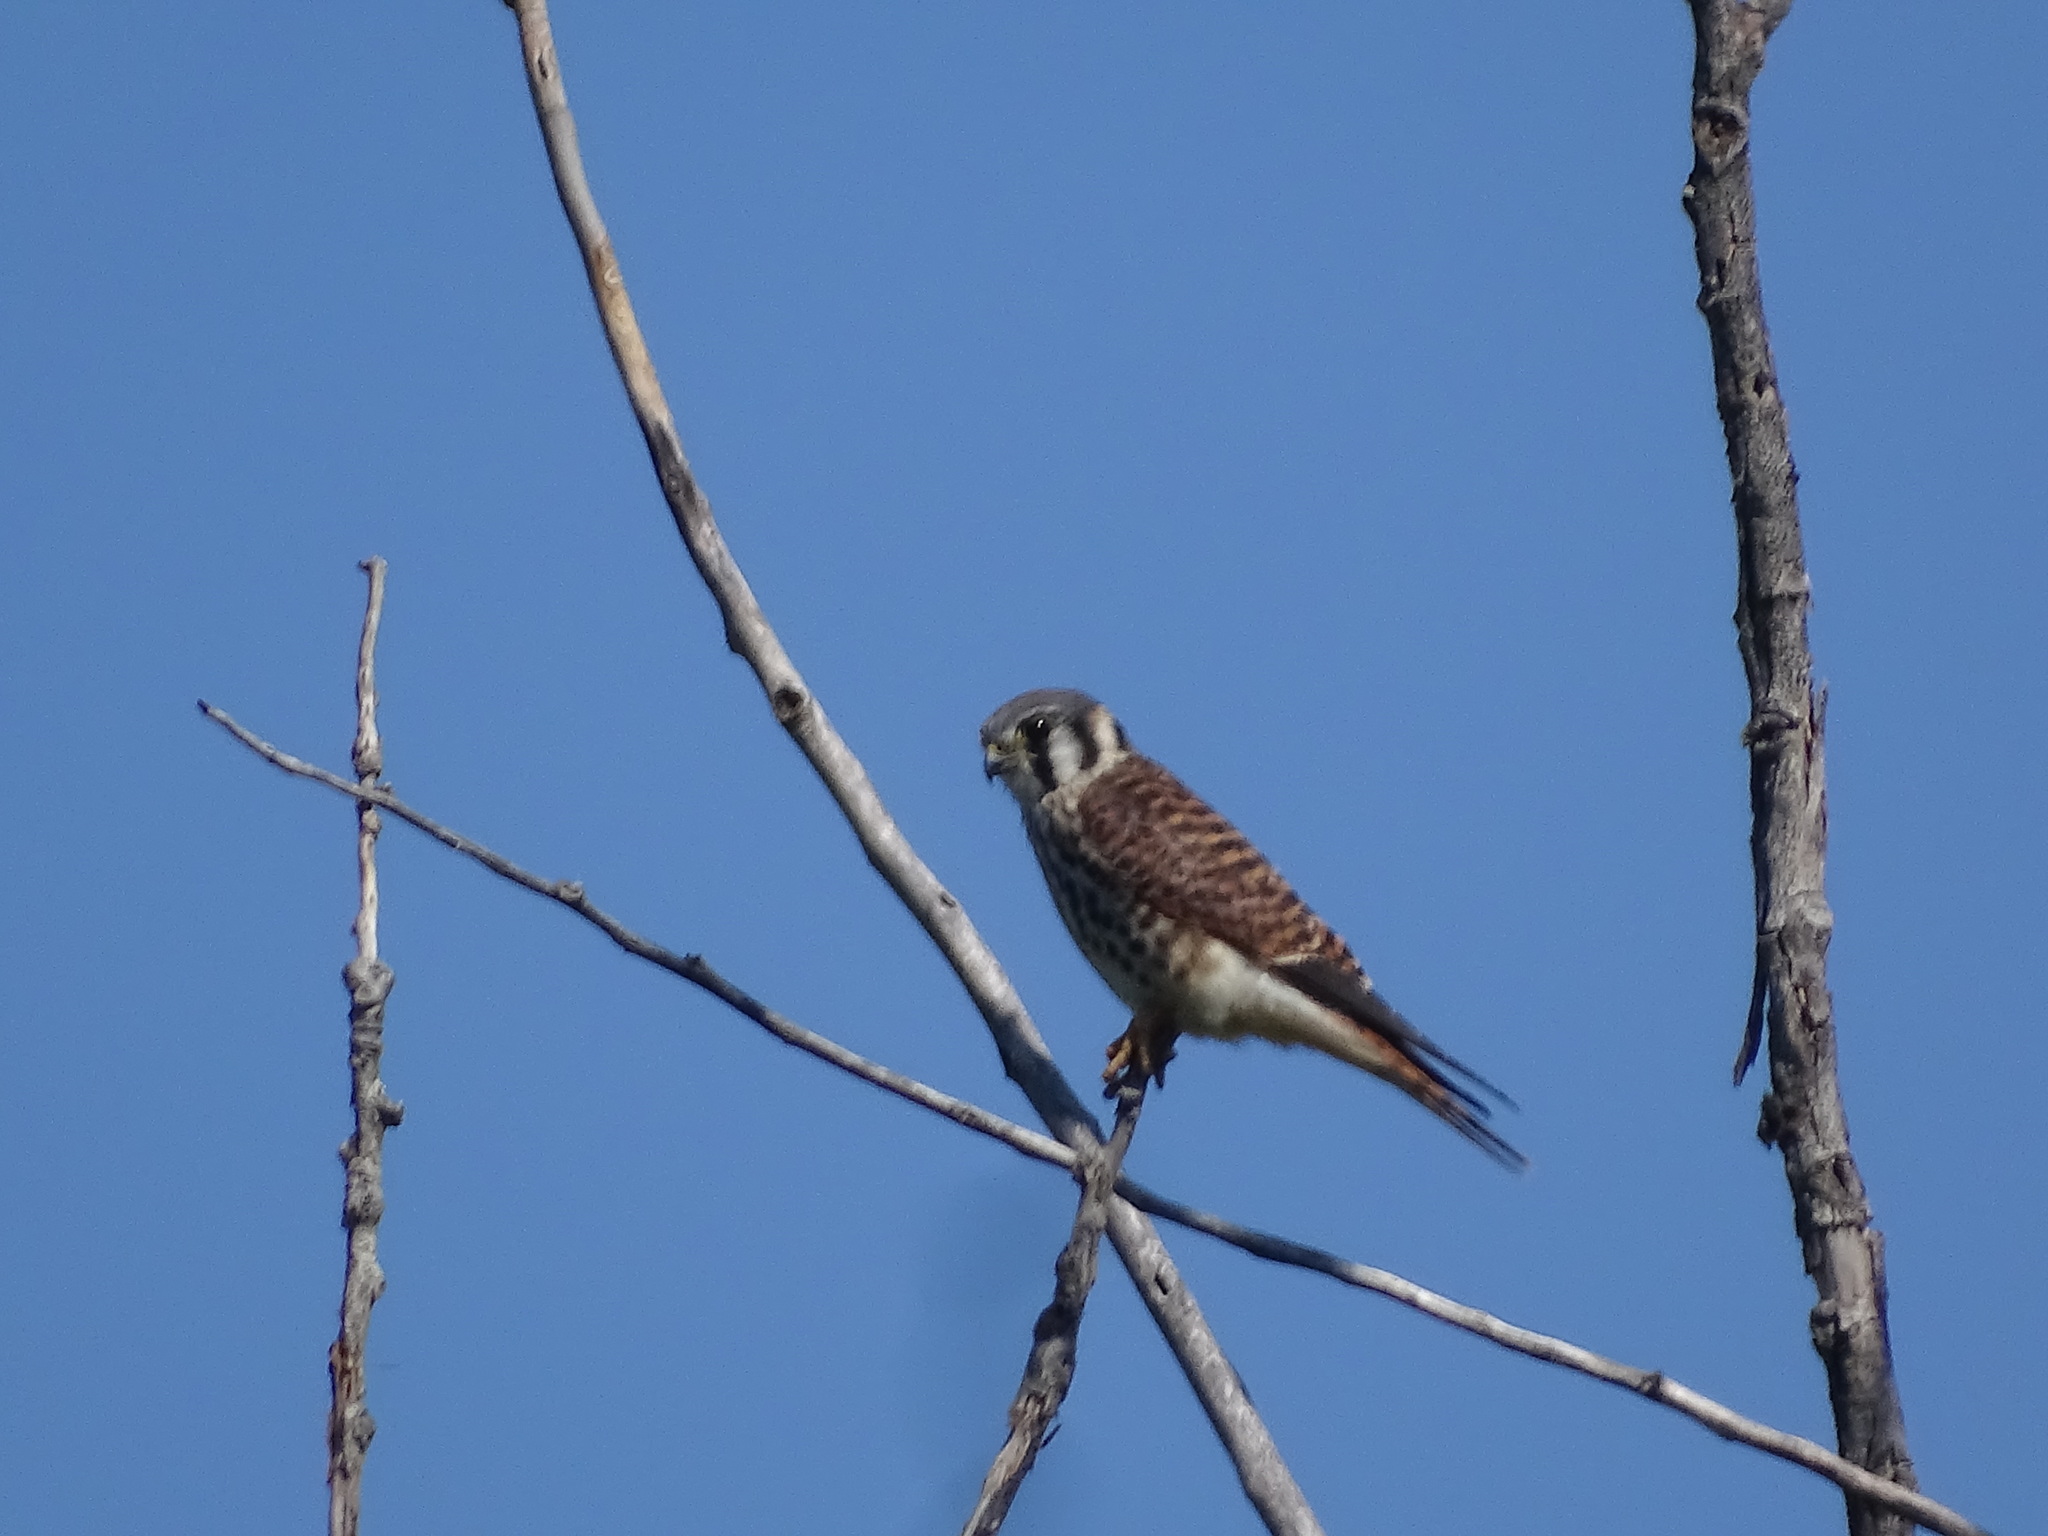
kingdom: Animalia
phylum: Chordata
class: Aves
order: Falconiformes
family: Falconidae
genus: Falco
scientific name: Falco sparverius
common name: American kestrel
